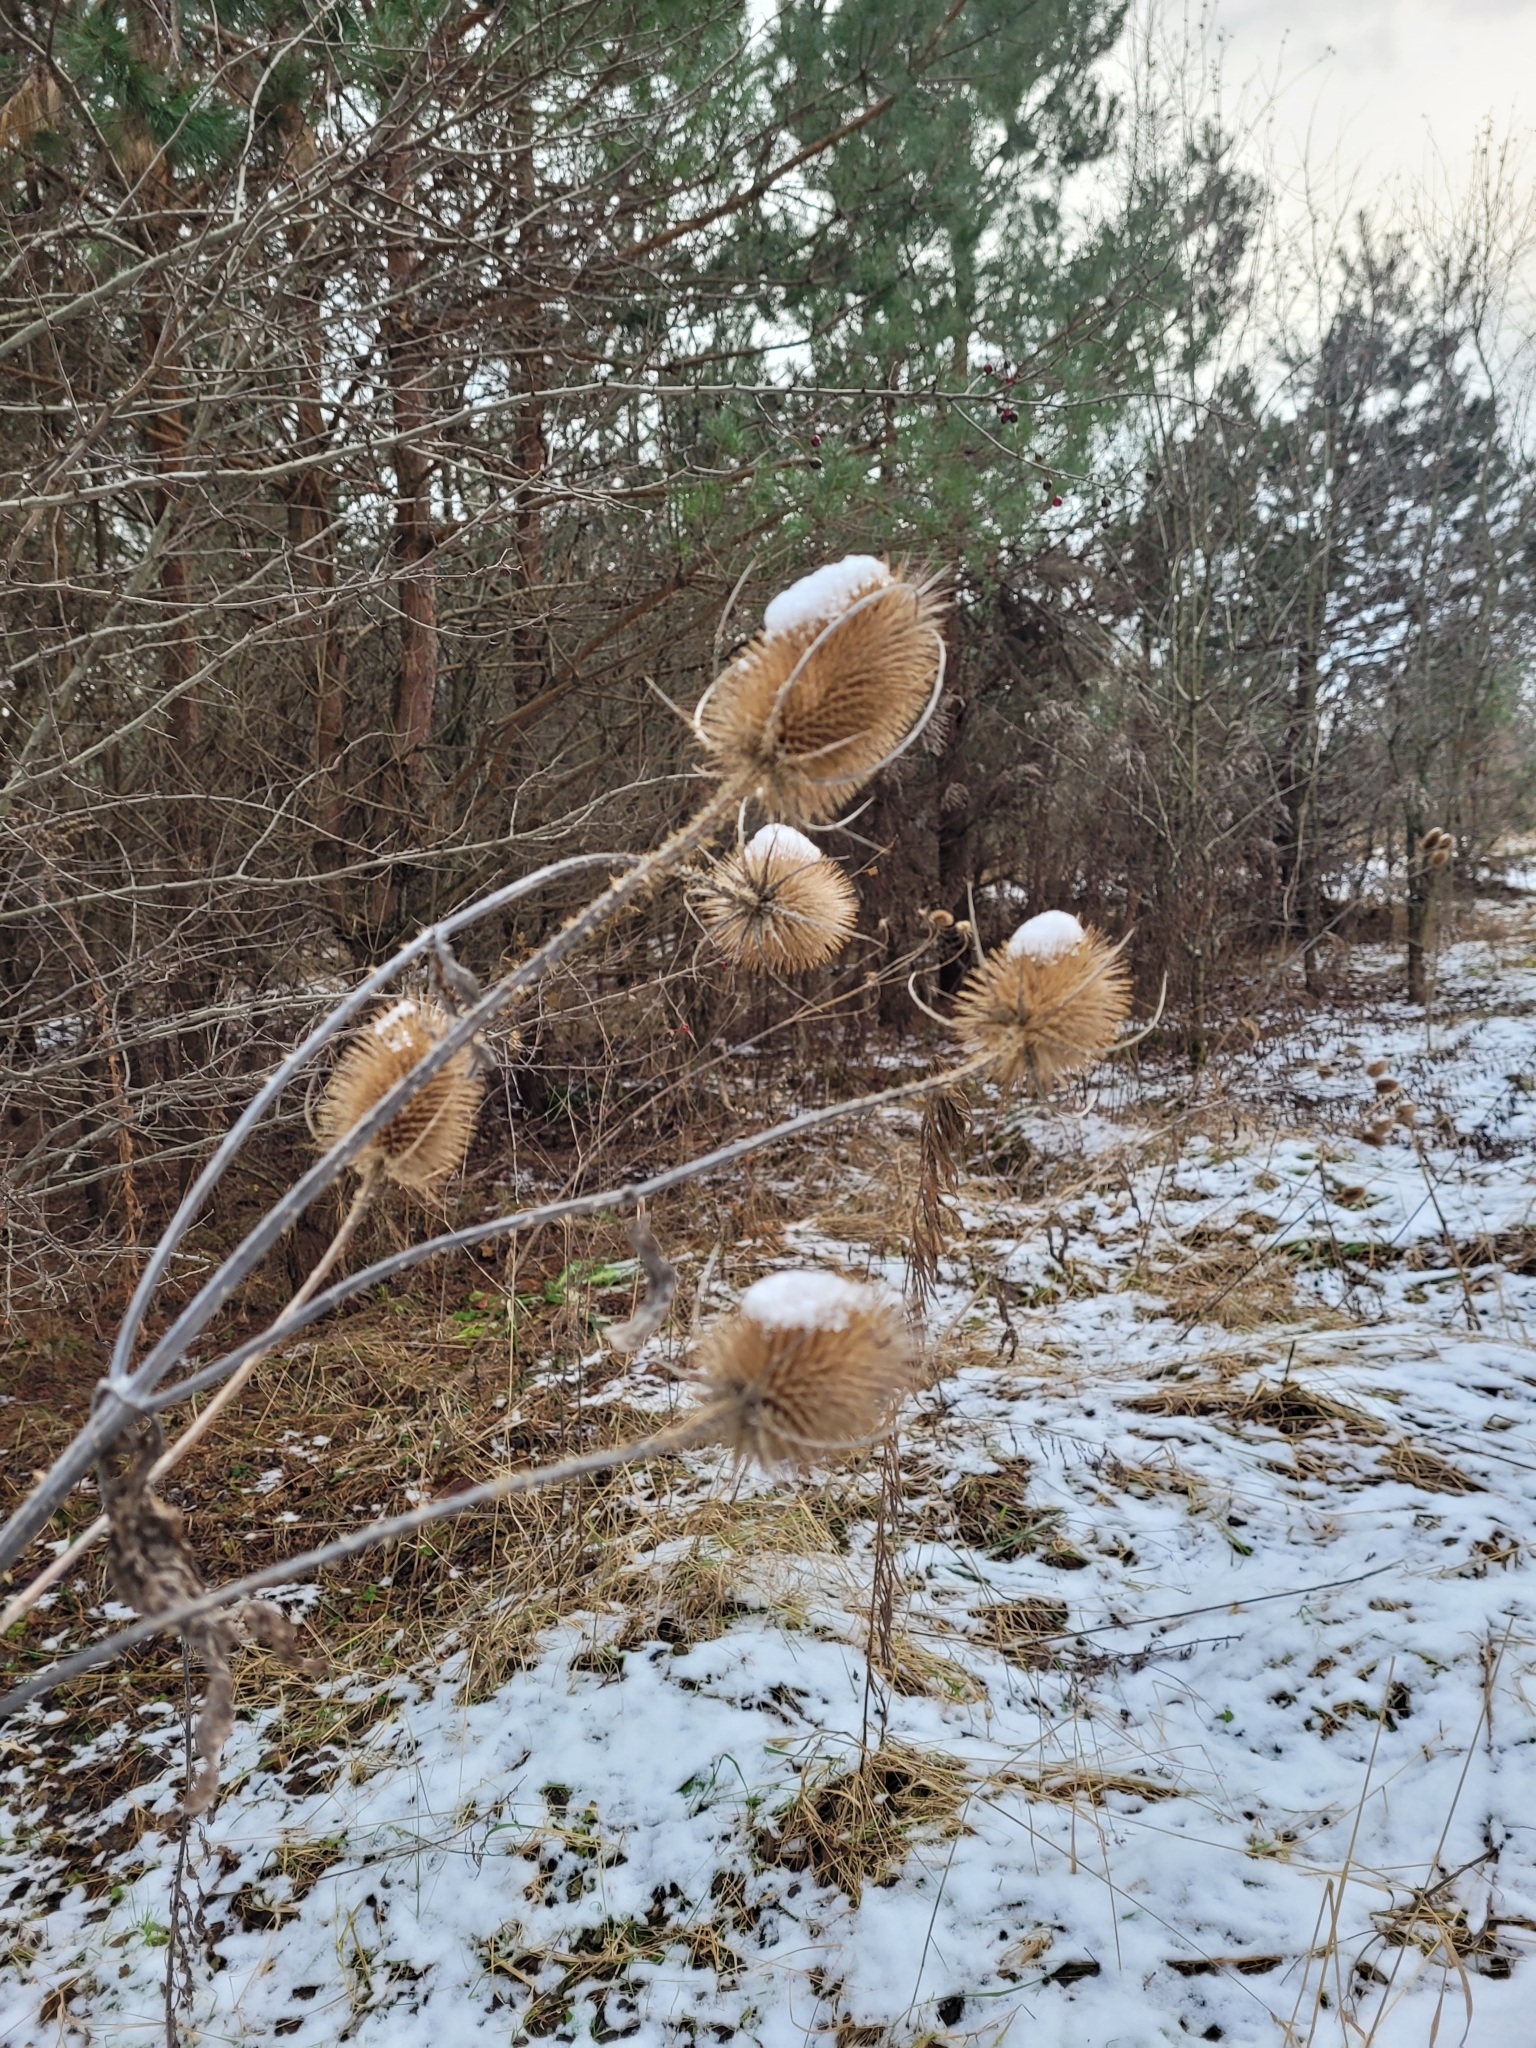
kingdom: Plantae
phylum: Tracheophyta
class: Magnoliopsida
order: Dipsacales
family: Caprifoliaceae
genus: Dipsacus
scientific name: Dipsacus fullonum
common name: Teasel
